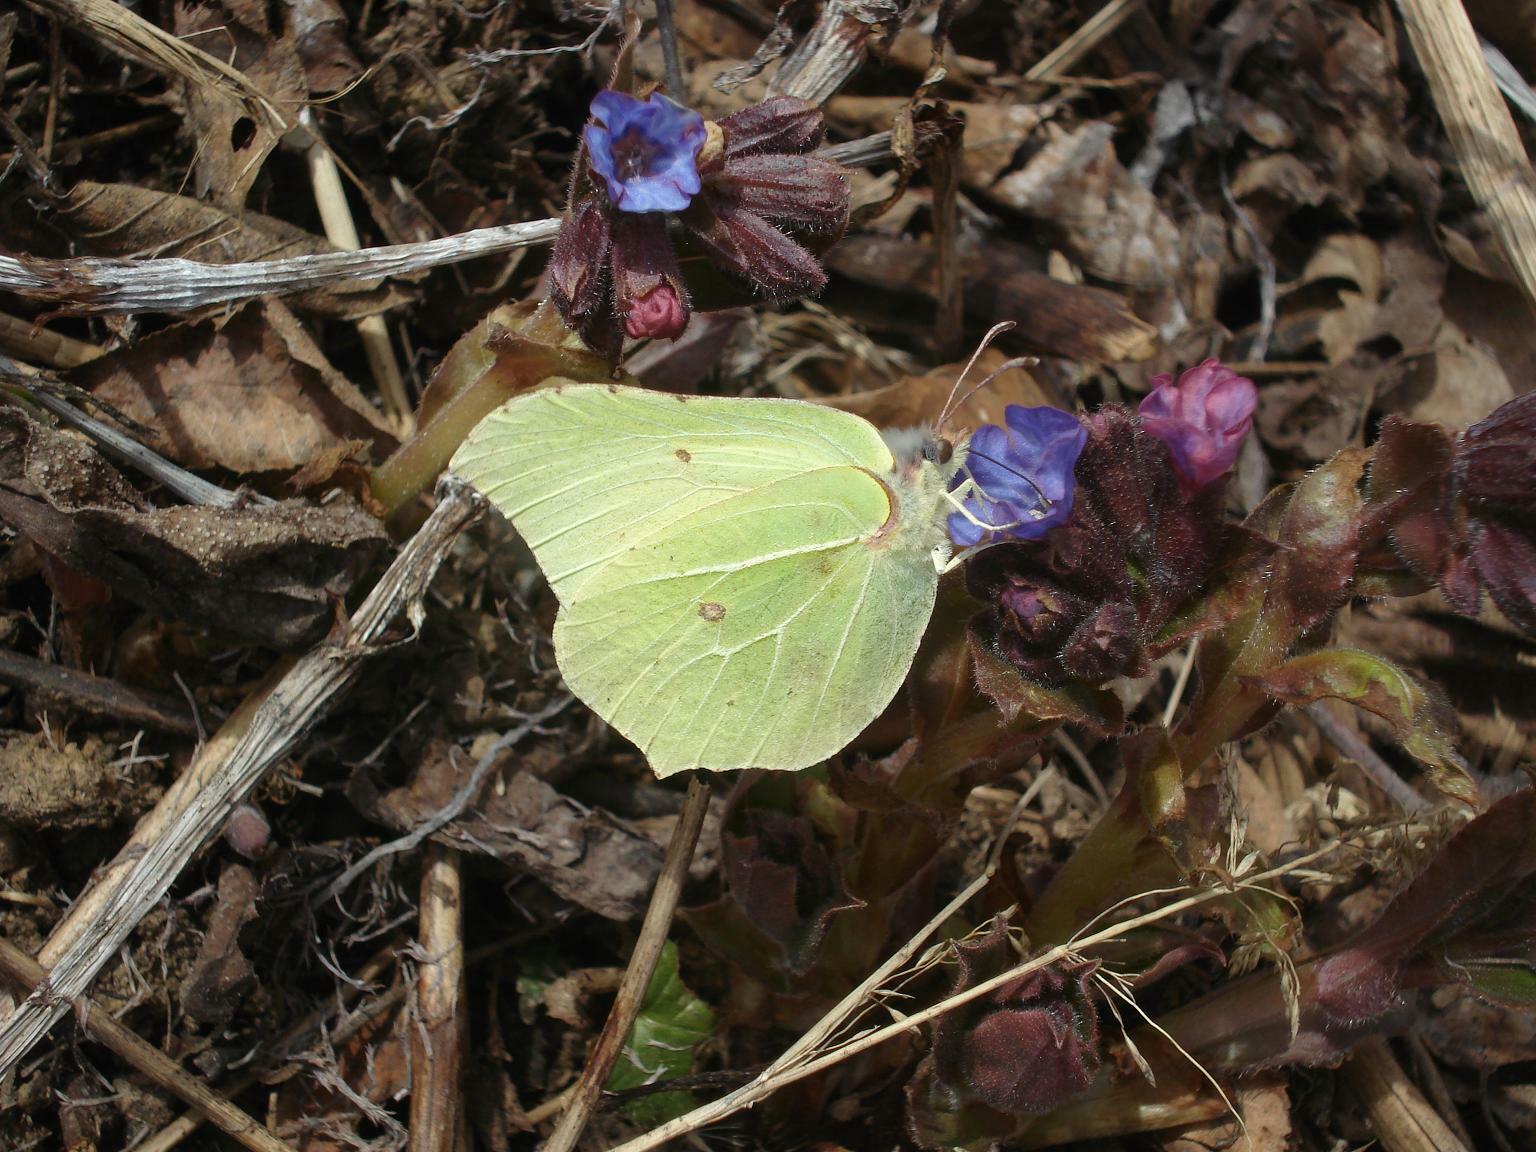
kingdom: Animalia
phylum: Arthropoda
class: Insecta
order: Lepidoptera
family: Pieridae
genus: Gonepteryx
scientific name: Gonepteryx rhamni
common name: Brimstone
